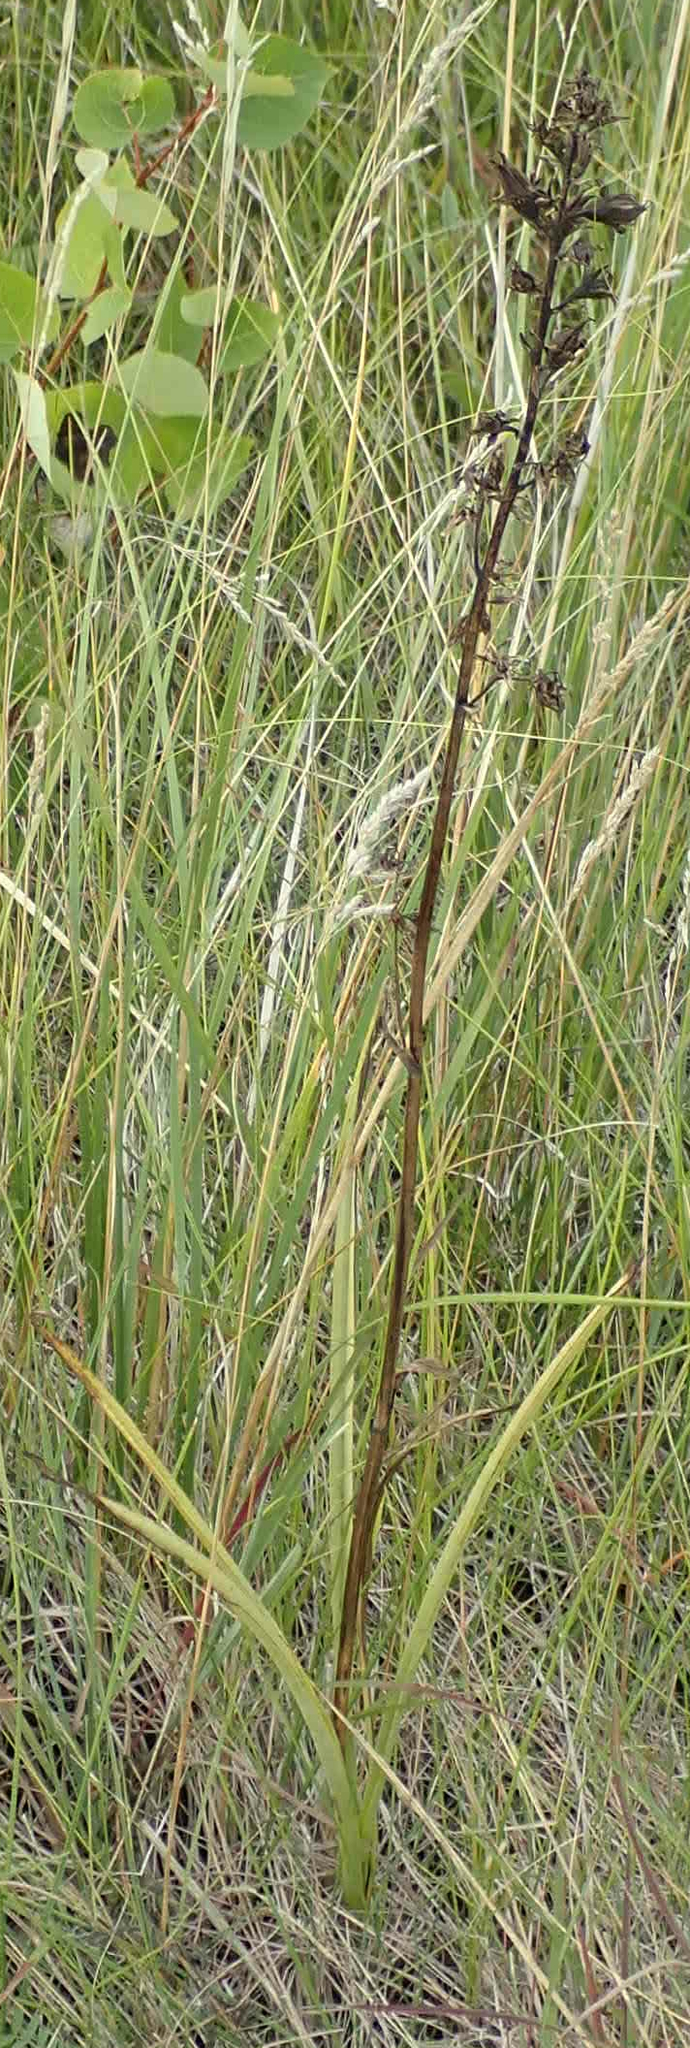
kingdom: Plantae
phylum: Tracheophyta
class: Liliopsida
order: Liliales
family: Melanthiaceae
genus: Anticlea
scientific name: Anticlea elegans
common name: Mountain death camas
